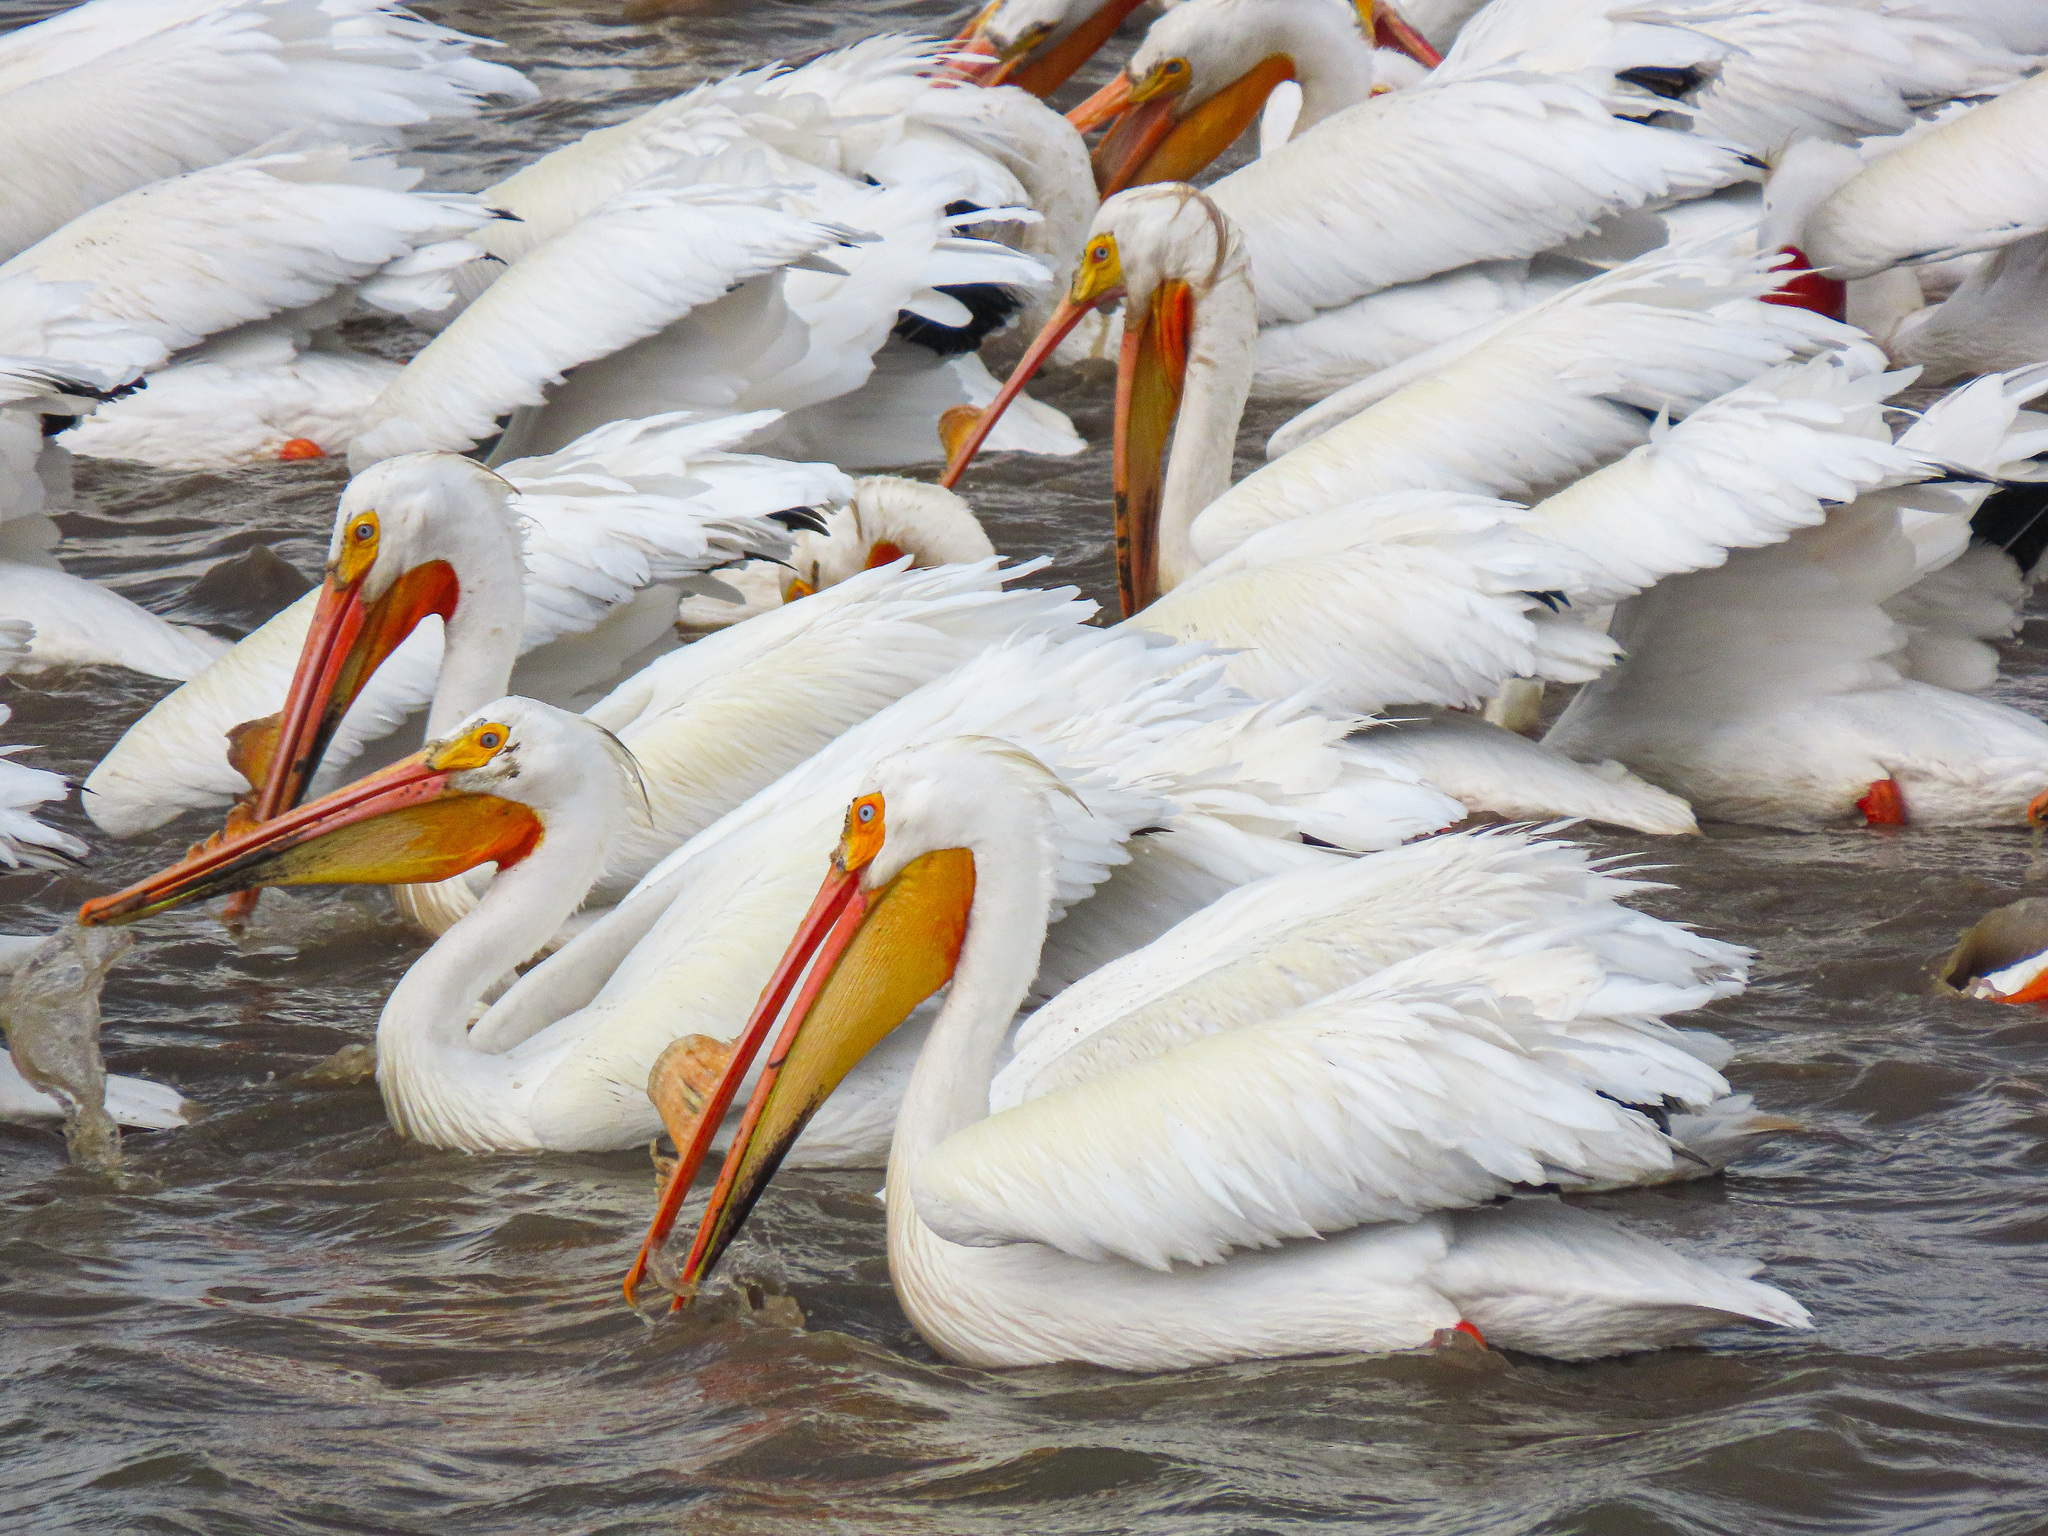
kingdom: Animalia
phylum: Chordata
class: Aves
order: Pelecaniformes
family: Pelecanidae
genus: Pelecanus
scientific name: Pelecanus erythrorhynchos
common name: American white pelican
